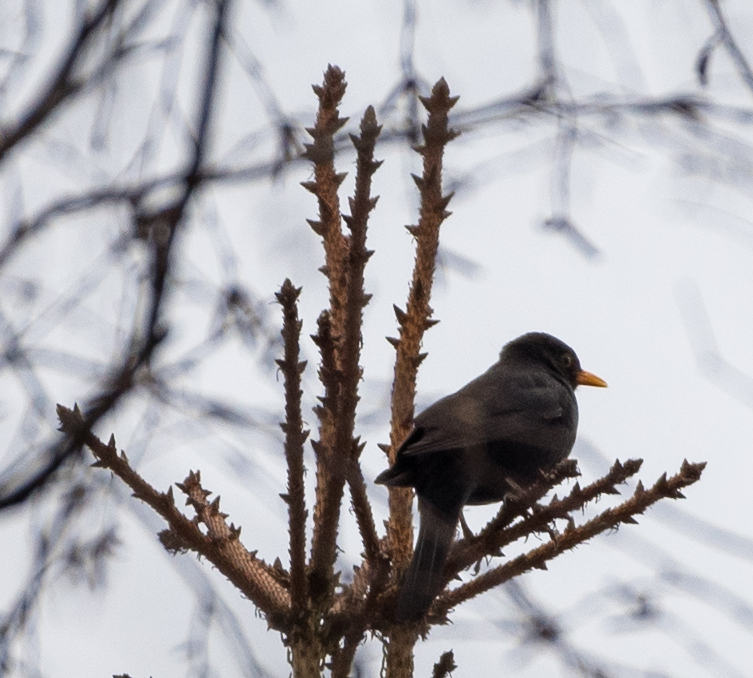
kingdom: Animalia
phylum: Chordata
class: Aves
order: Passeriformes
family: Turdidae
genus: Turdus
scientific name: Turdus merula
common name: Common blackbird
